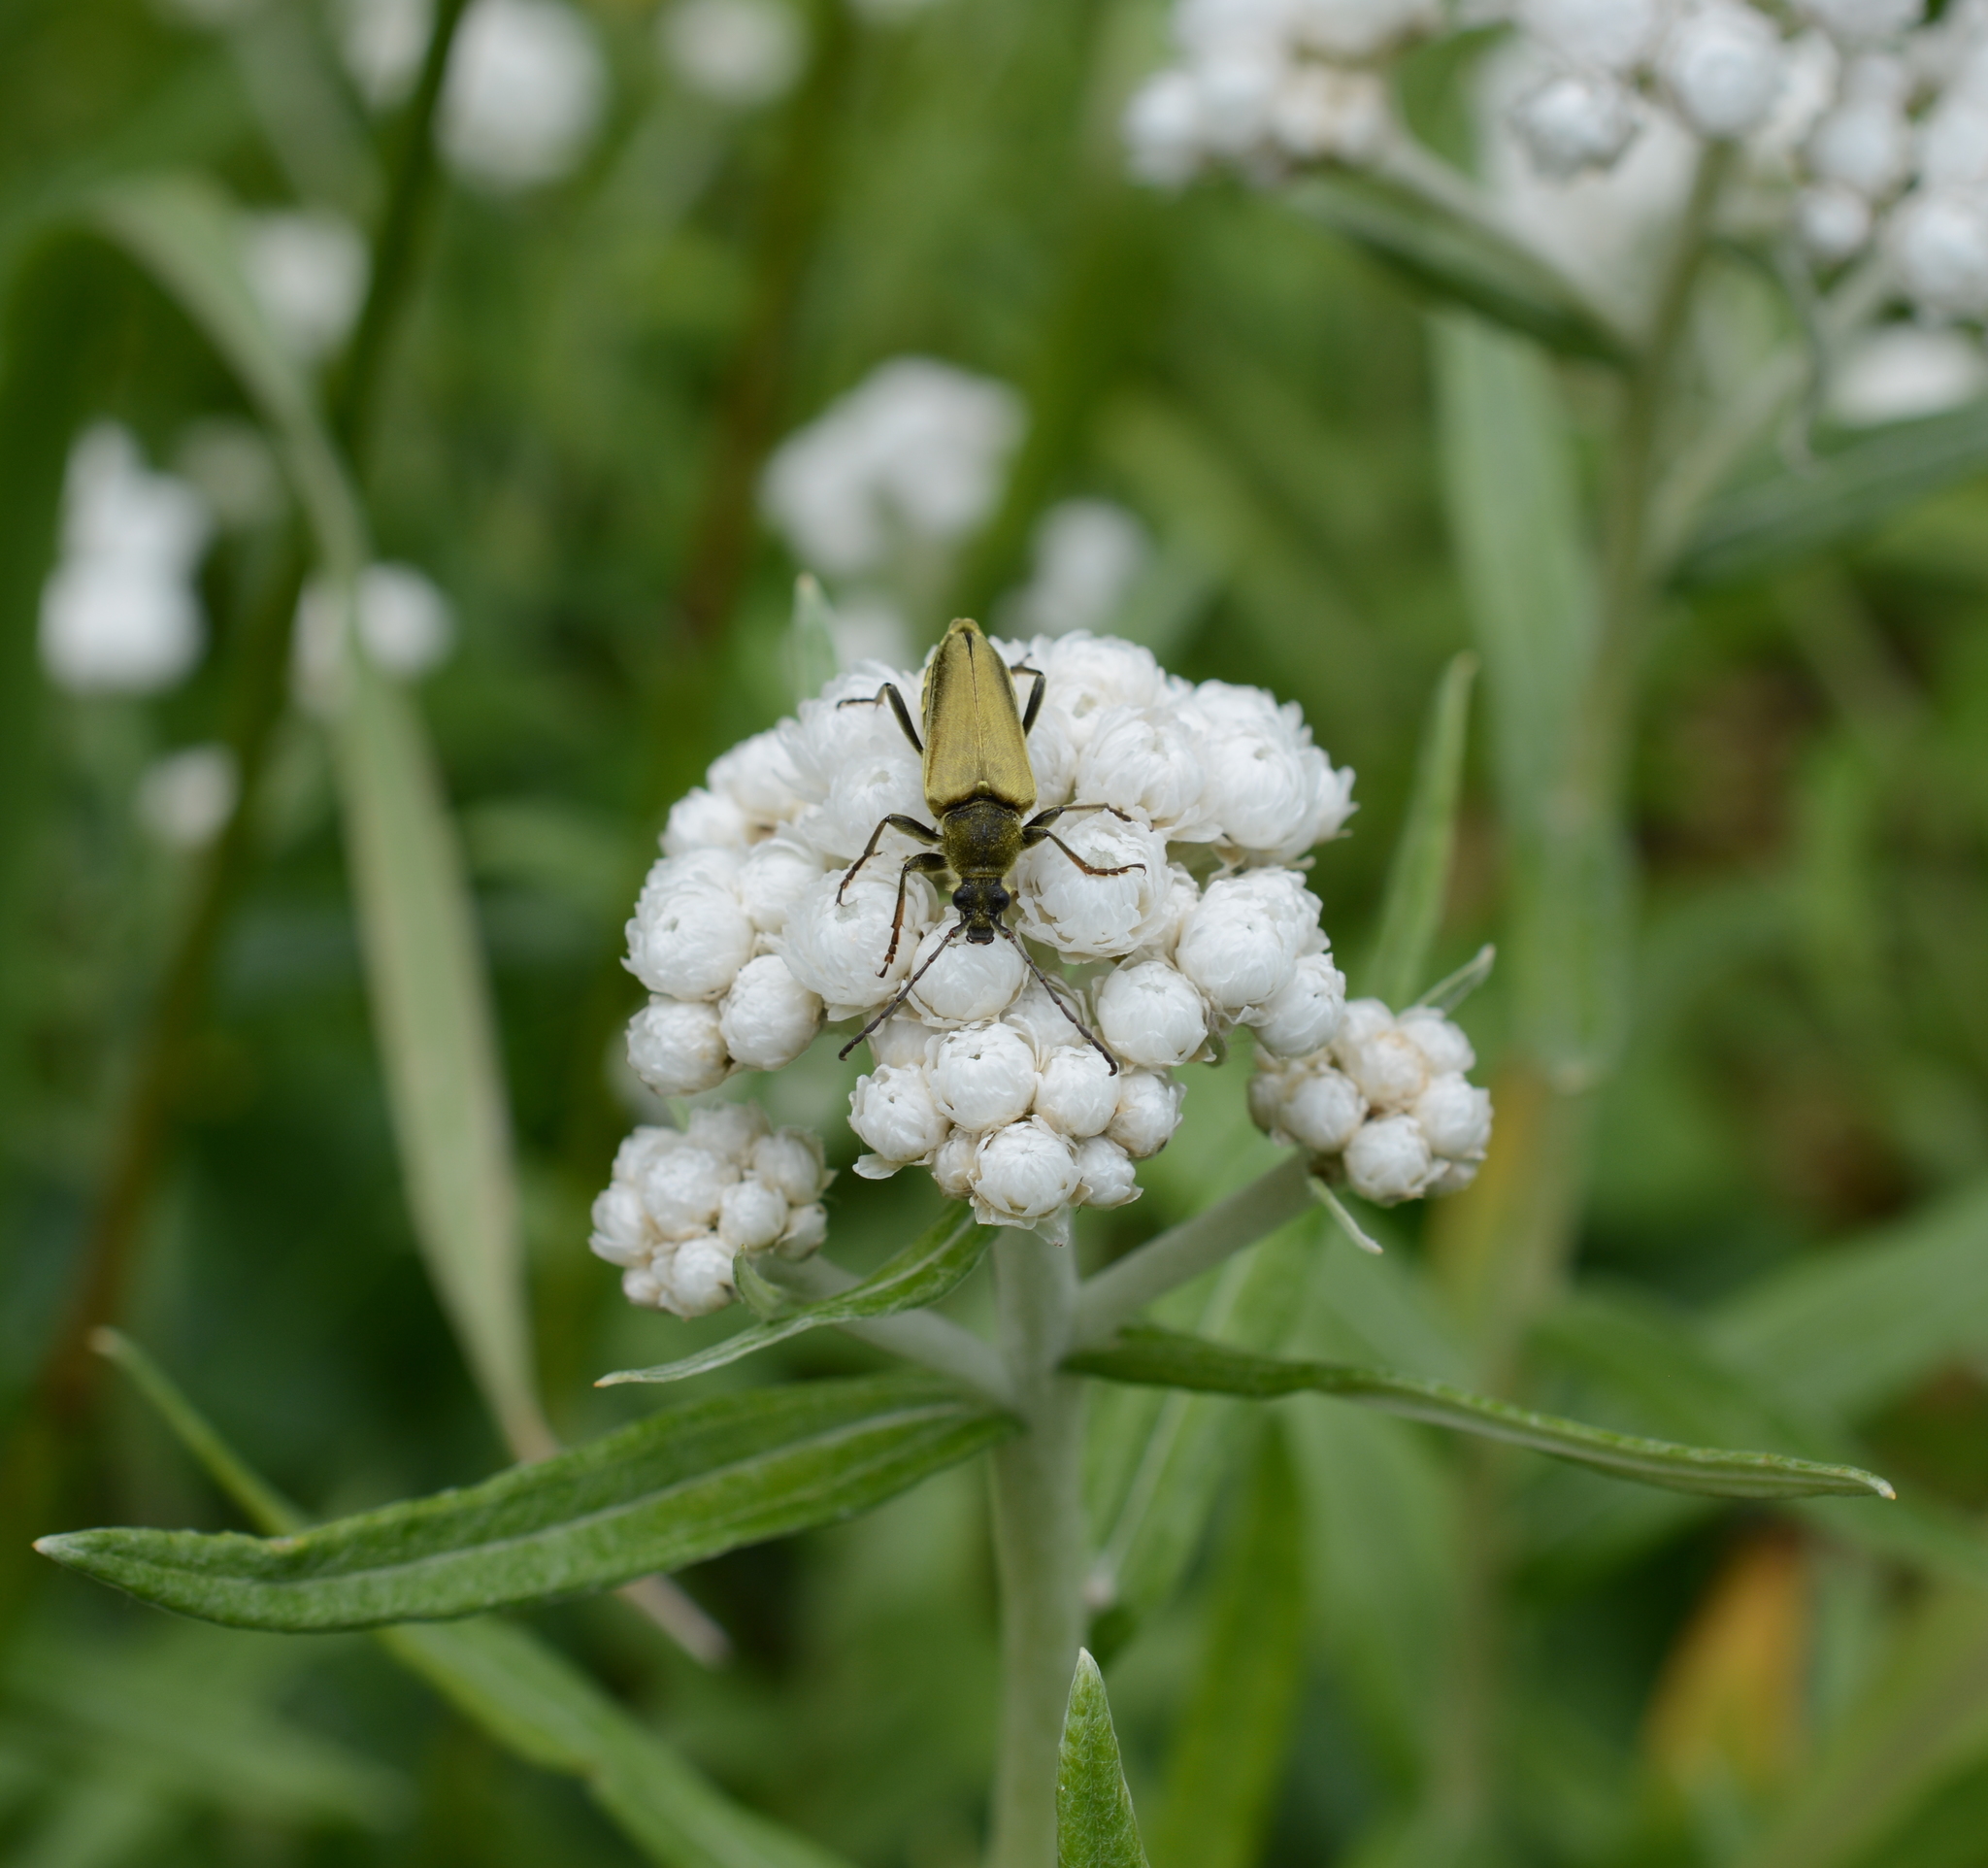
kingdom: Animalia
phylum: Arthropoda
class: Insecta
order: Coleoptera
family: Cerambycidae
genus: Cosmosalia
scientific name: Cosmosalia chrysocoma
